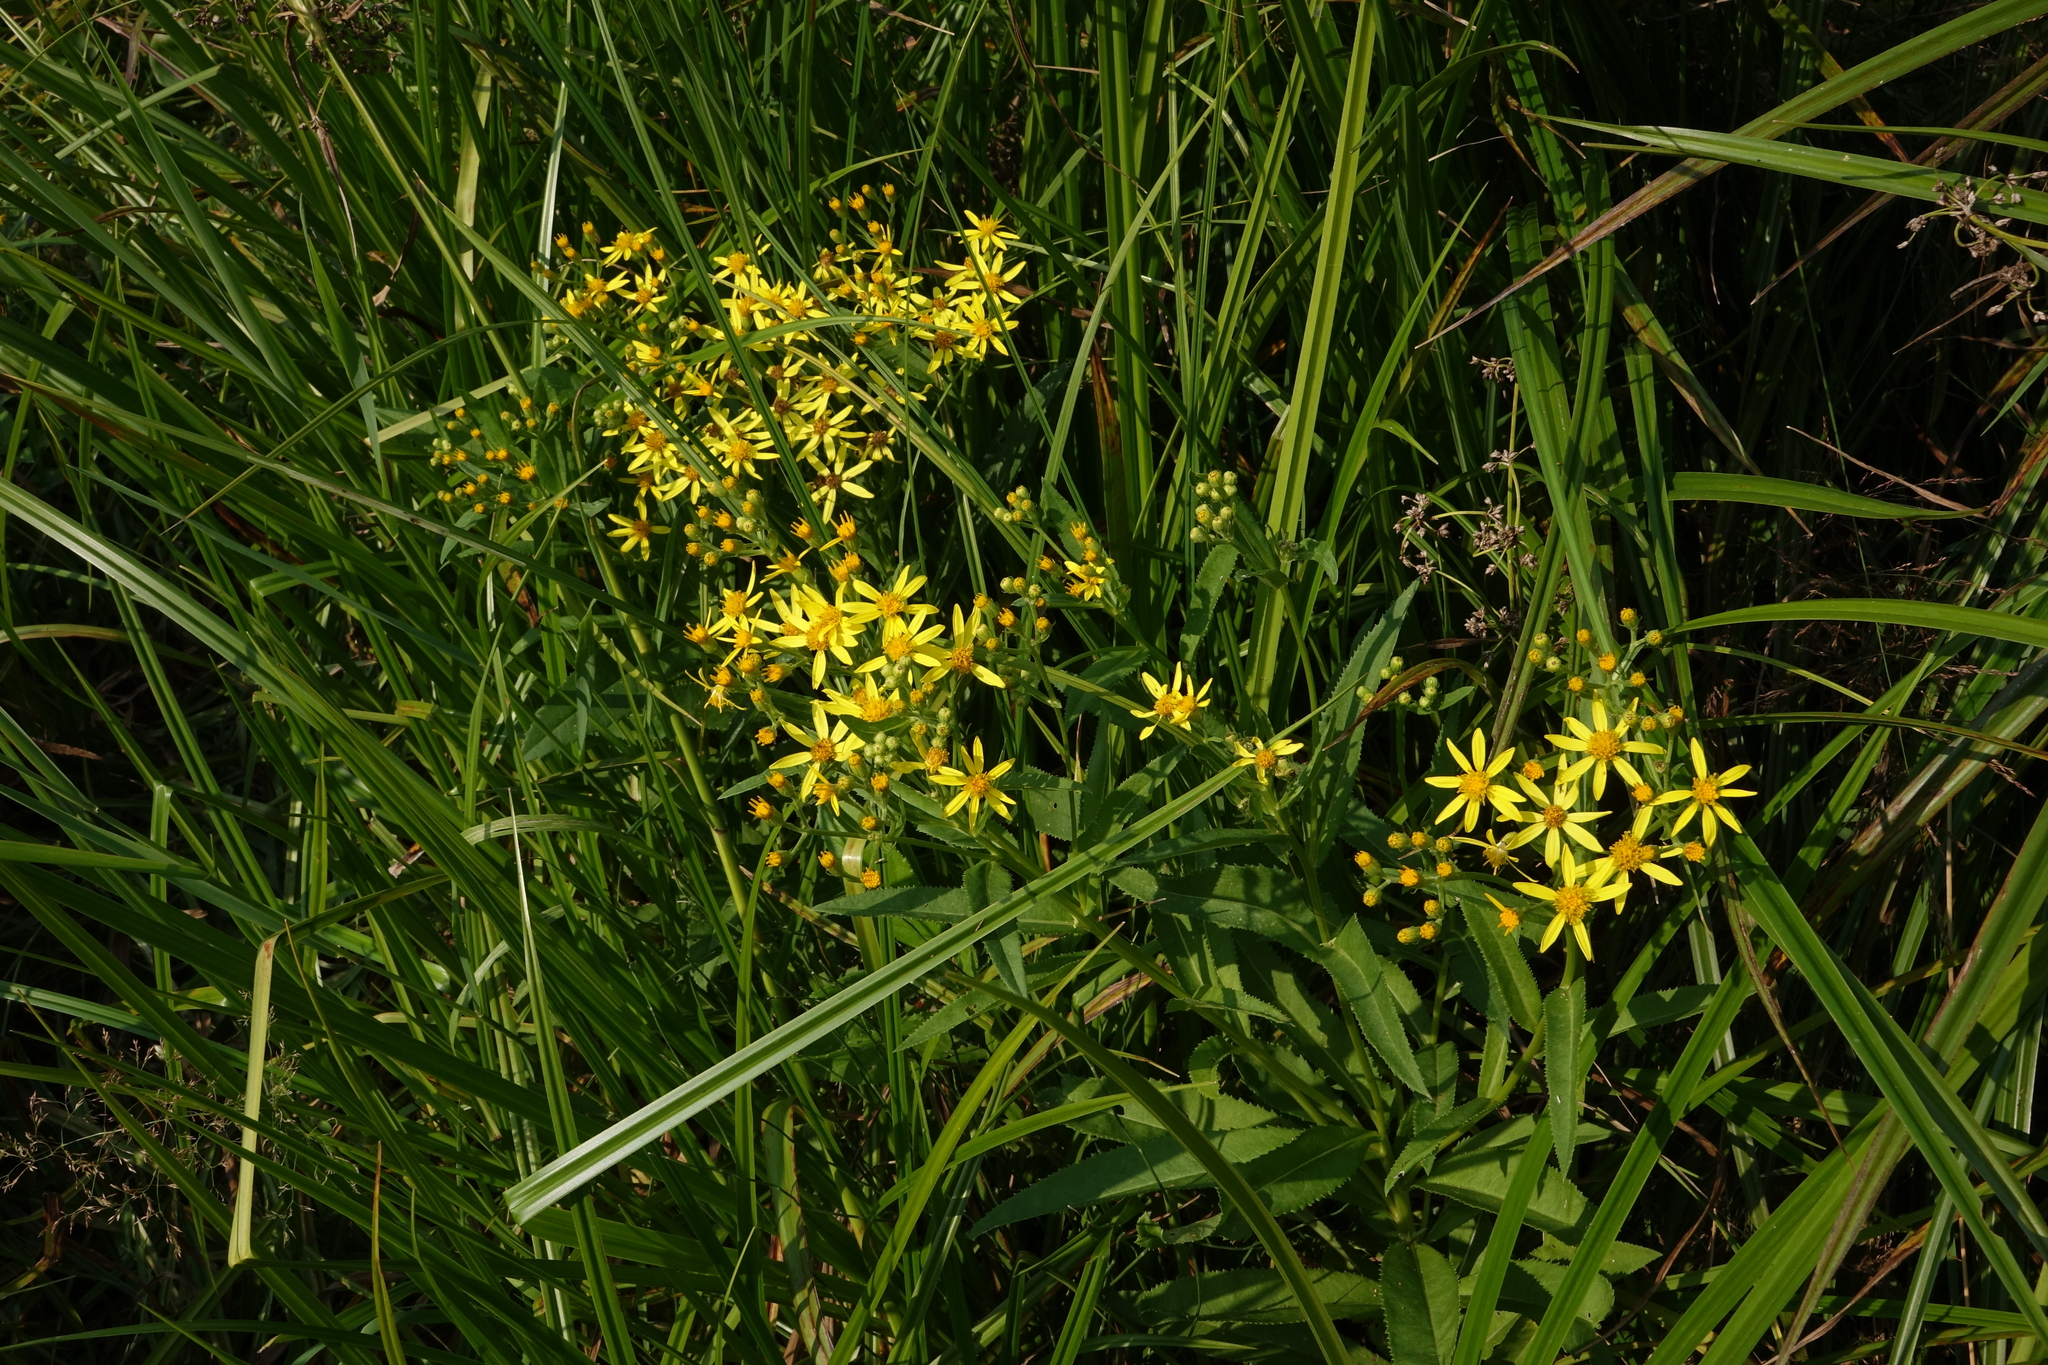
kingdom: Plantae
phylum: Tracheophyta
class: Magnoliopsida
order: Asterales
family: Asteraceae
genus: Senecio
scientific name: Senecio sarracenicus
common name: Broad-leaved ragwort
